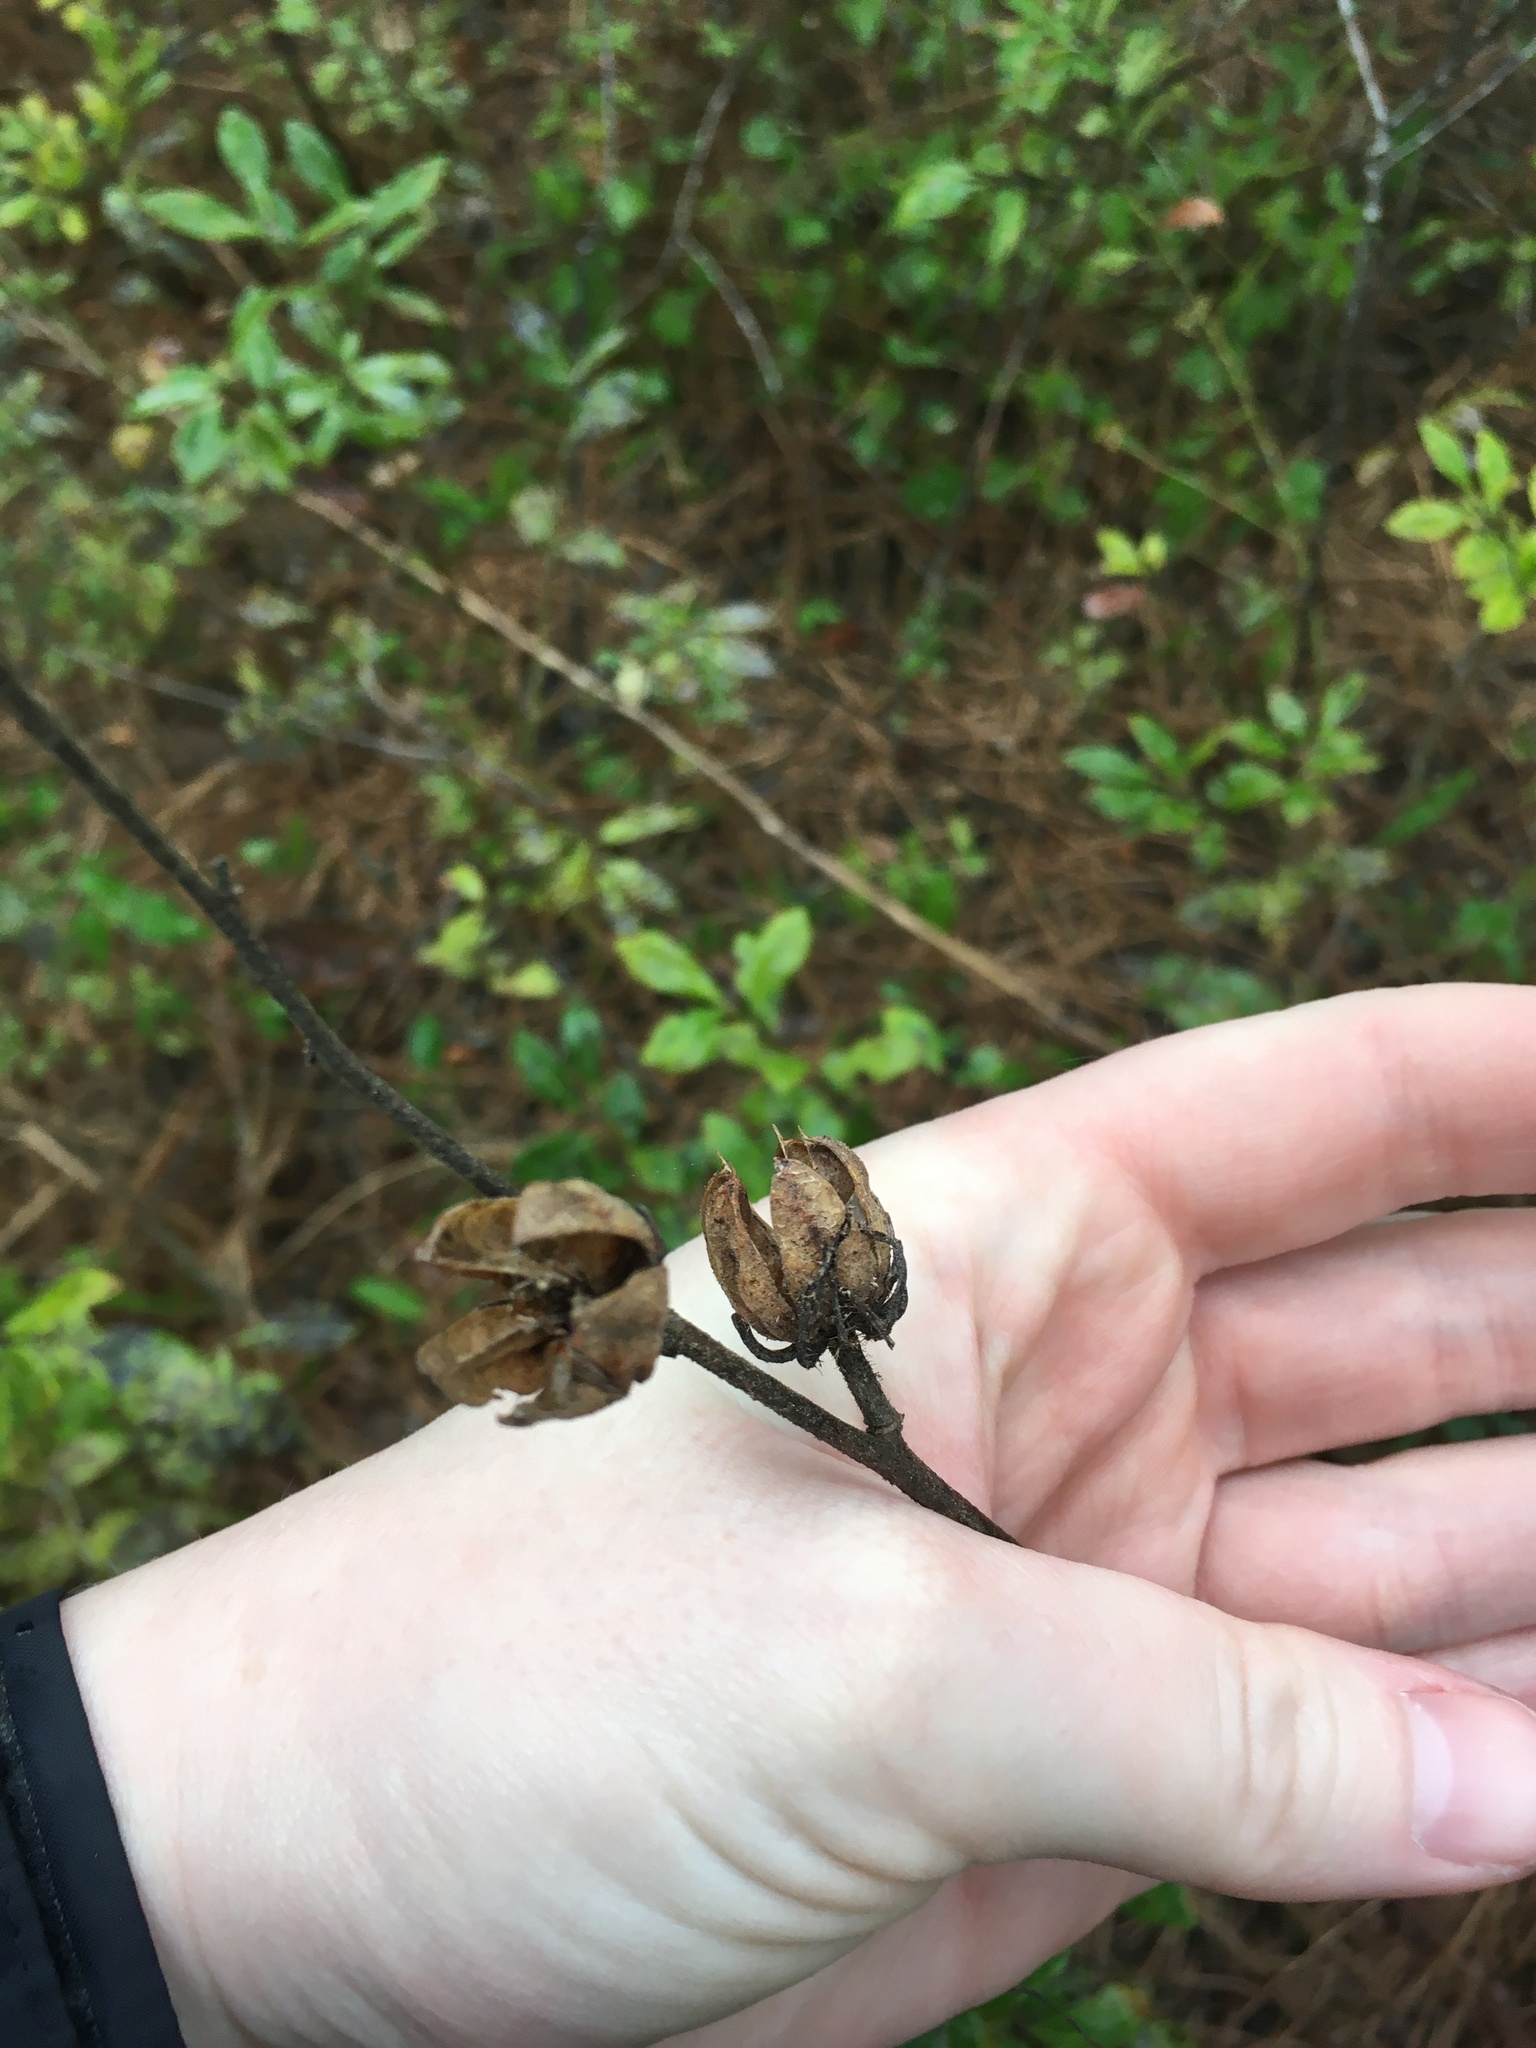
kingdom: Plantae
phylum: Tracheophyta
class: Magnoliopsida
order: Malvales
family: Malvaceae
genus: Hibiscus
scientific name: Hibiscus aculeatus
